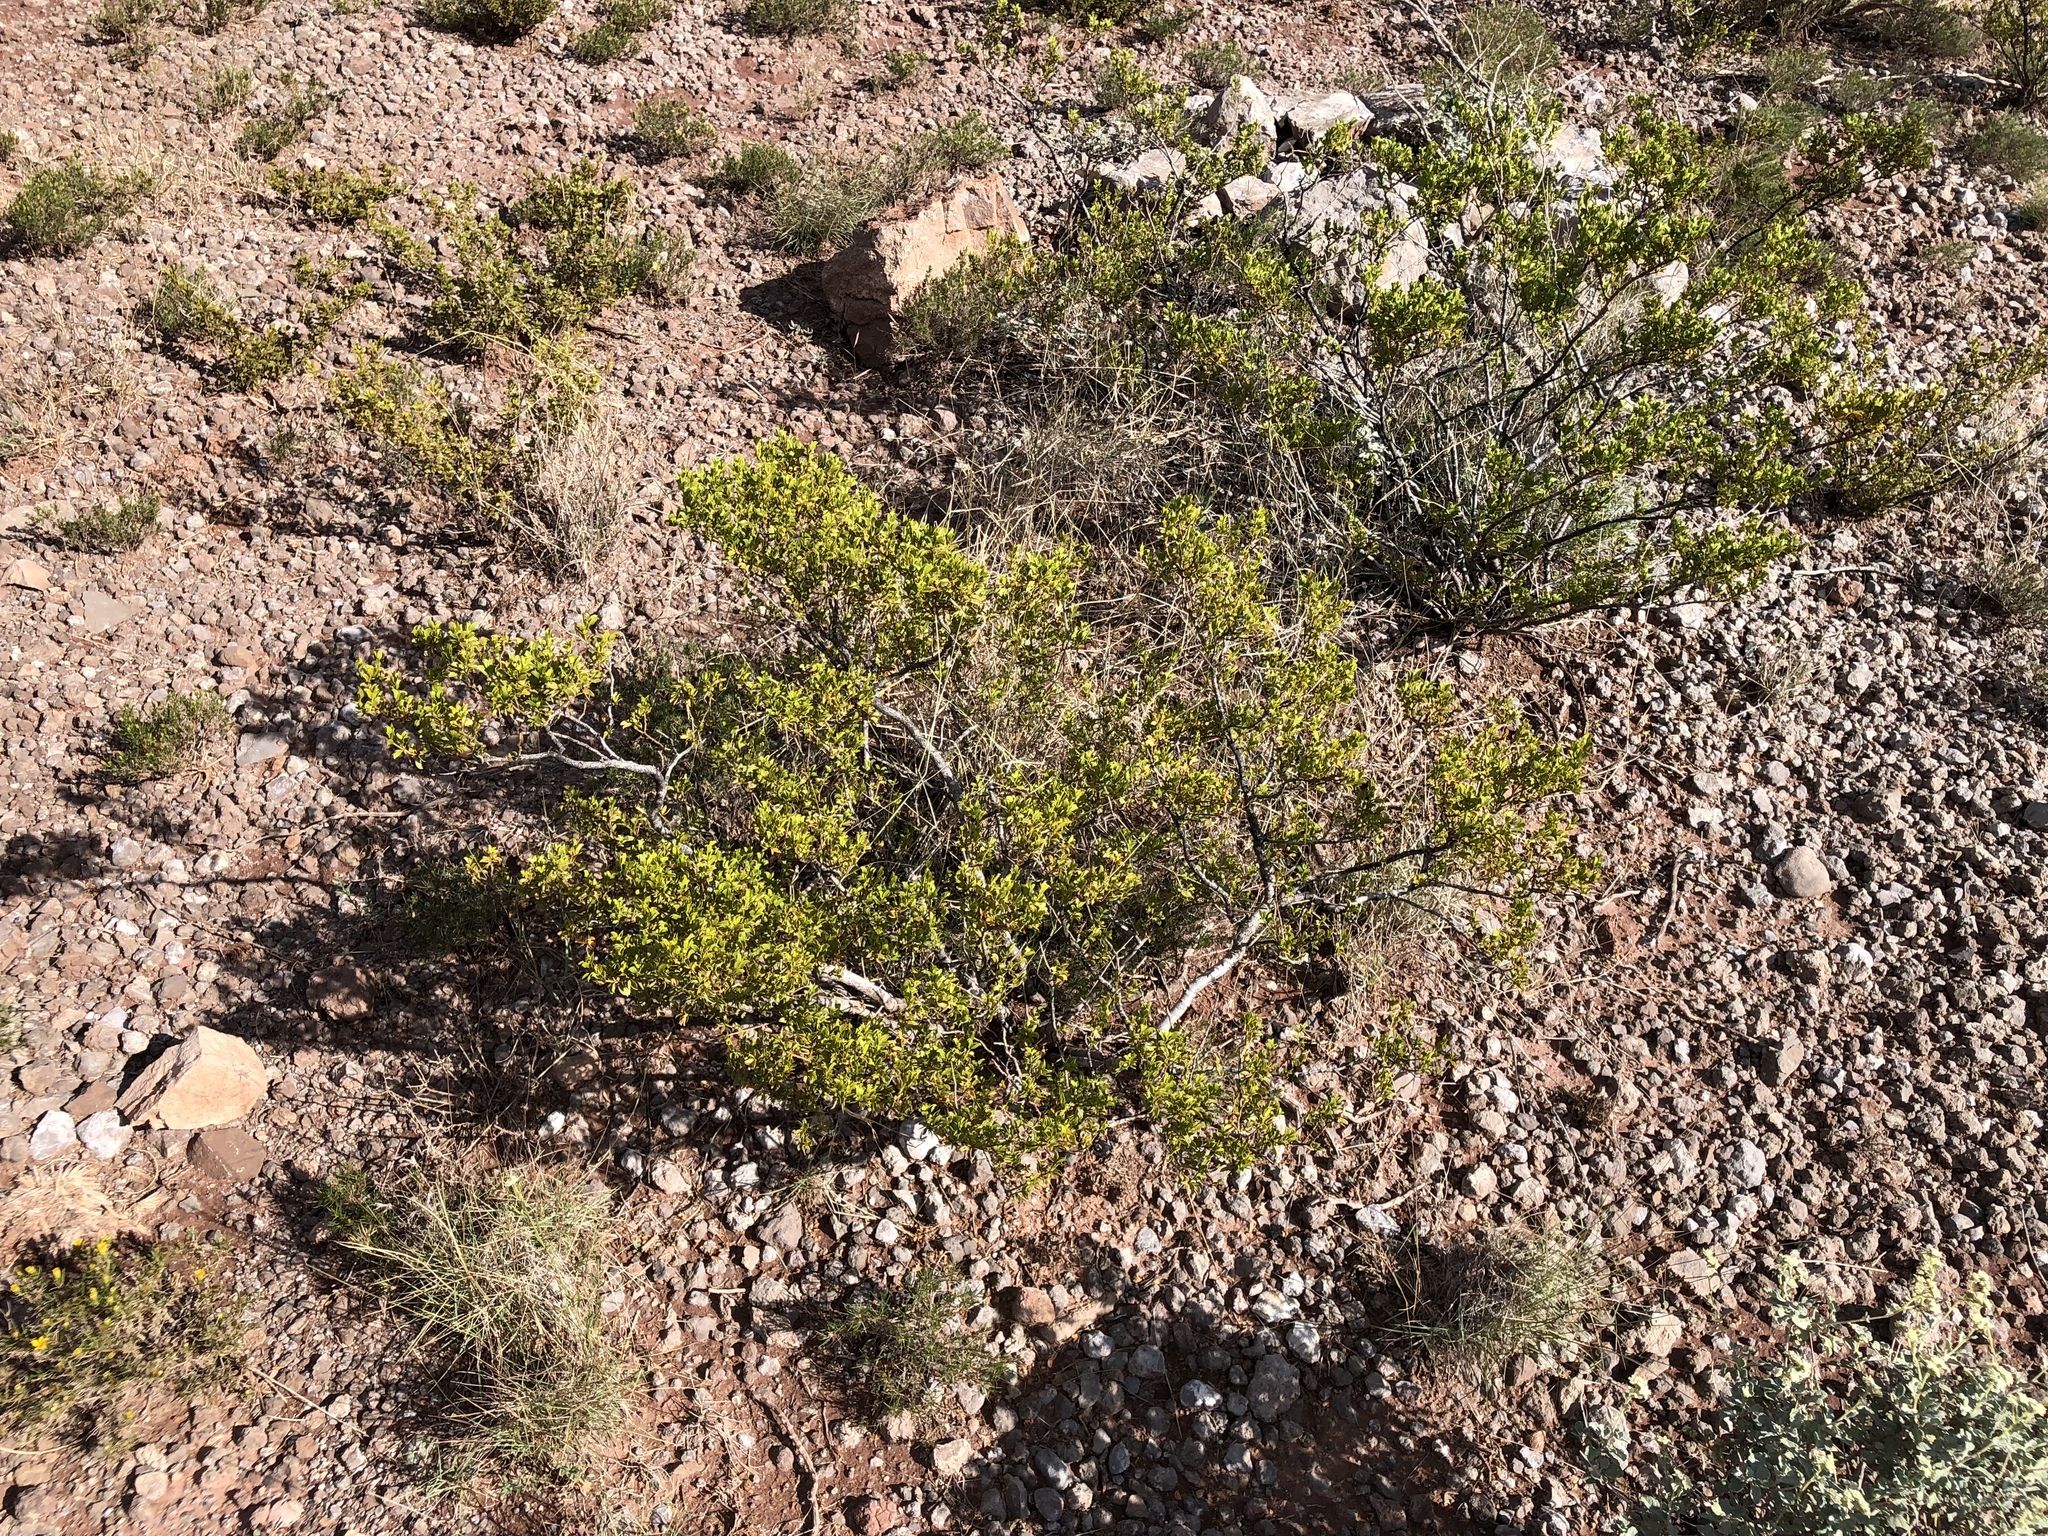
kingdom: Plantae
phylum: Tracheophyta
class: Magnoliopsida
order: Zygophyllales
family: Zygophyllaceae
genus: Larrea
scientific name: Larrea tridentata
